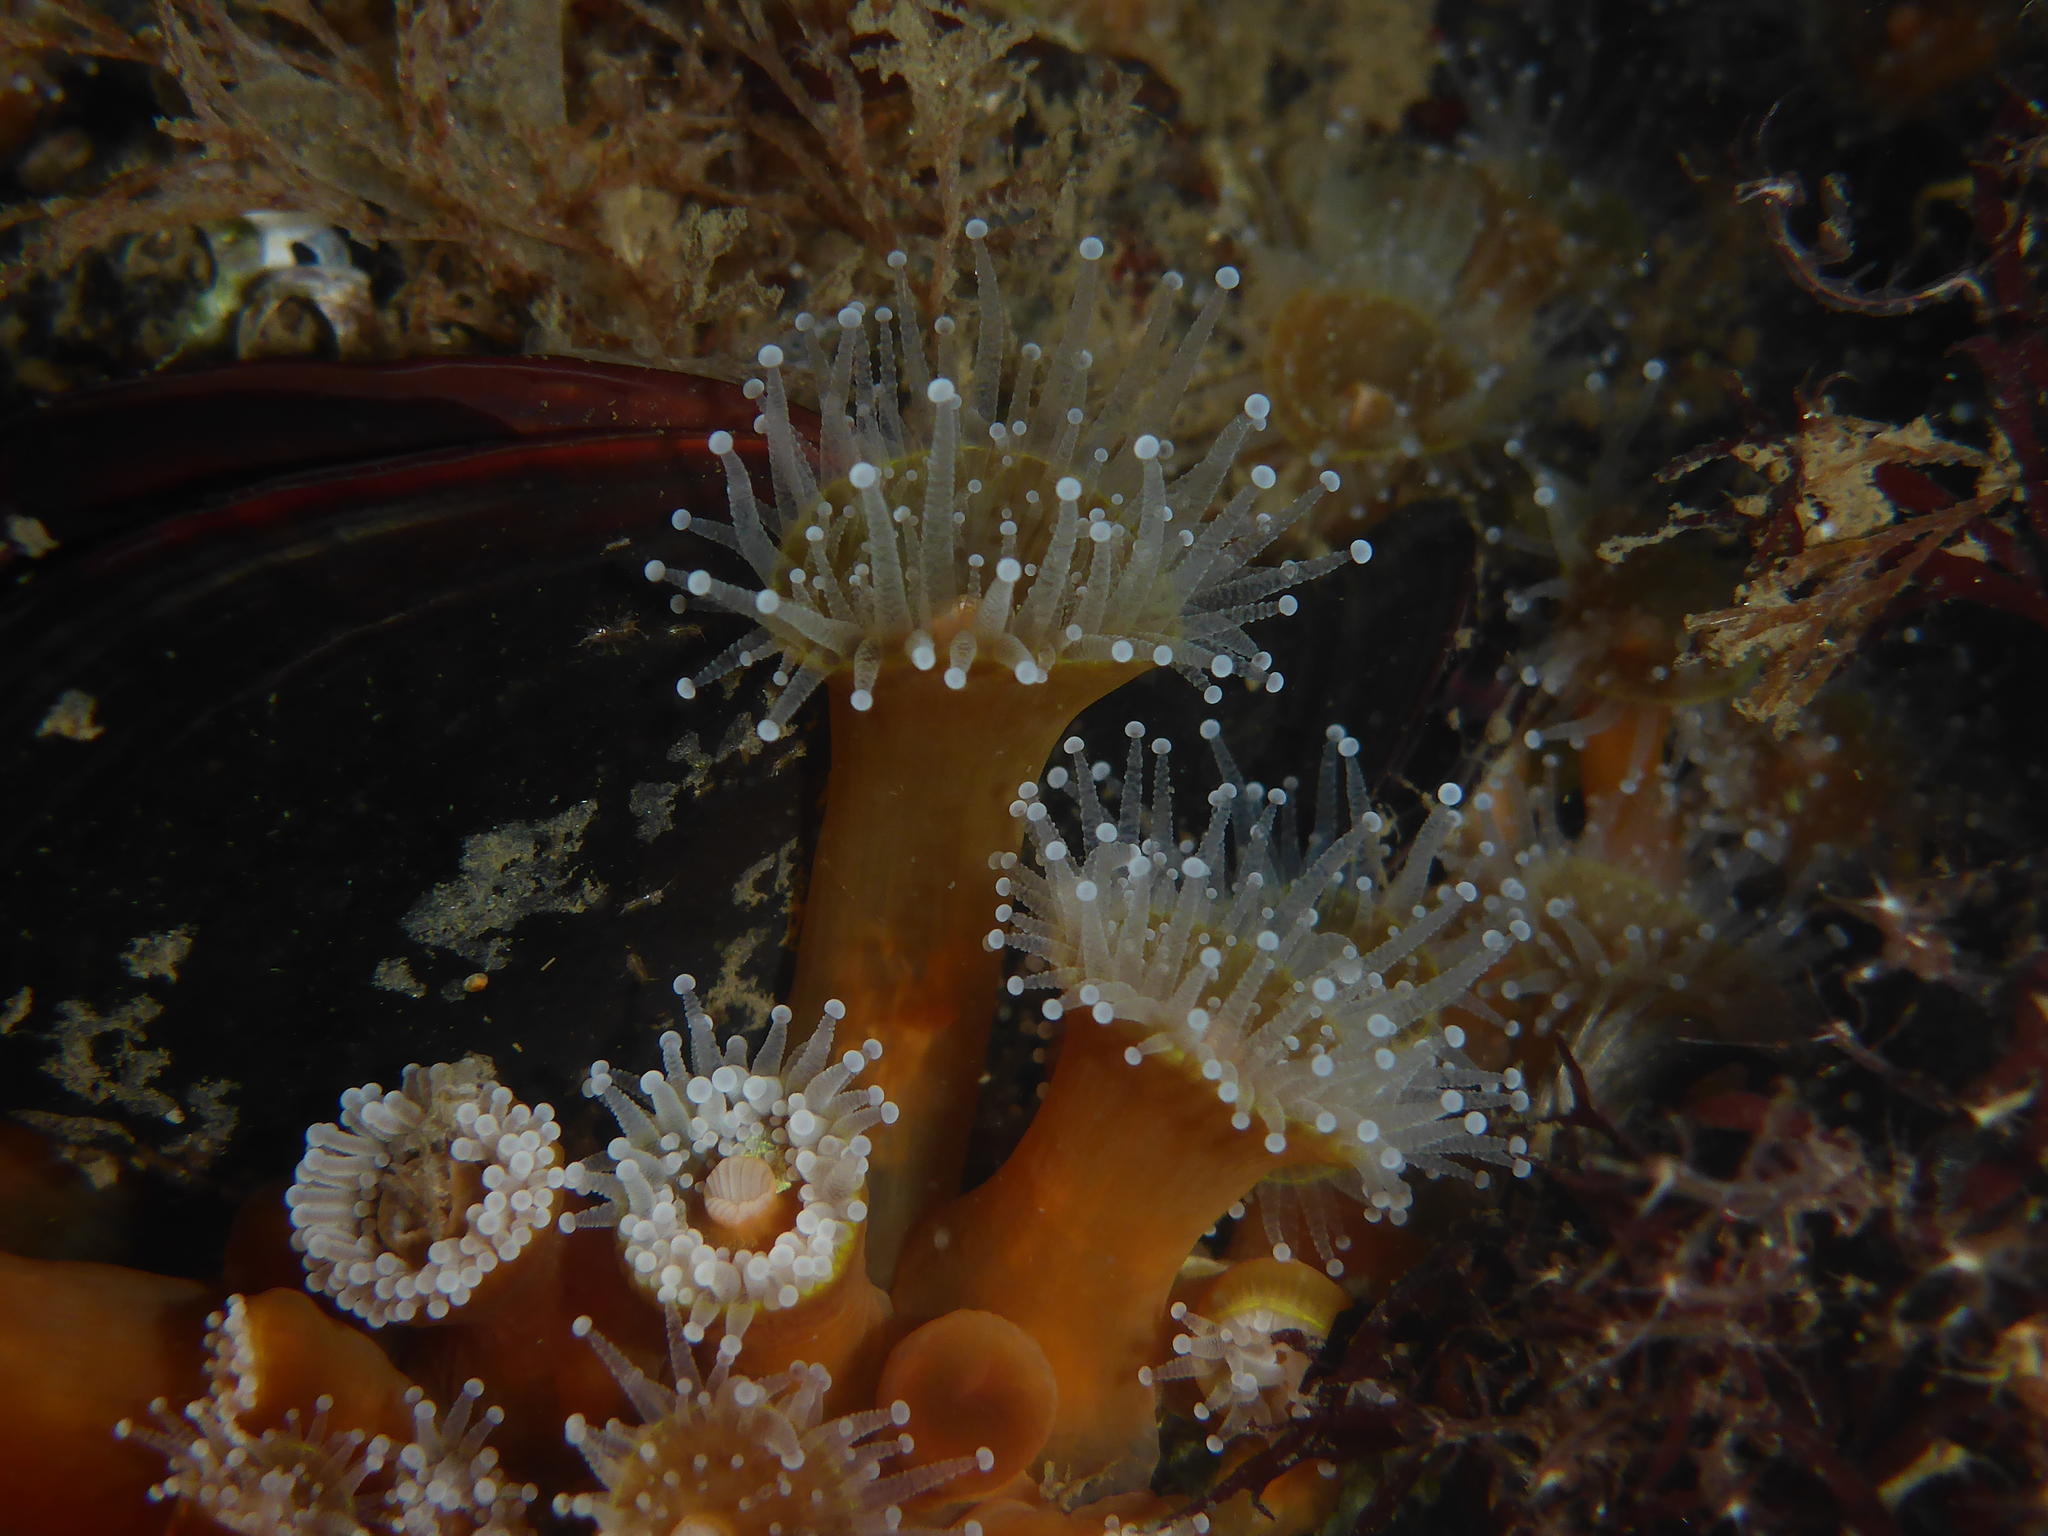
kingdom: Animalia
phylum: Cnidaria
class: Anthozoa
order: Corallimorpharia
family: Corallimorphidae
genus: Corynactis
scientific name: Corynactis californica
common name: Strawberry corallimorpharian
